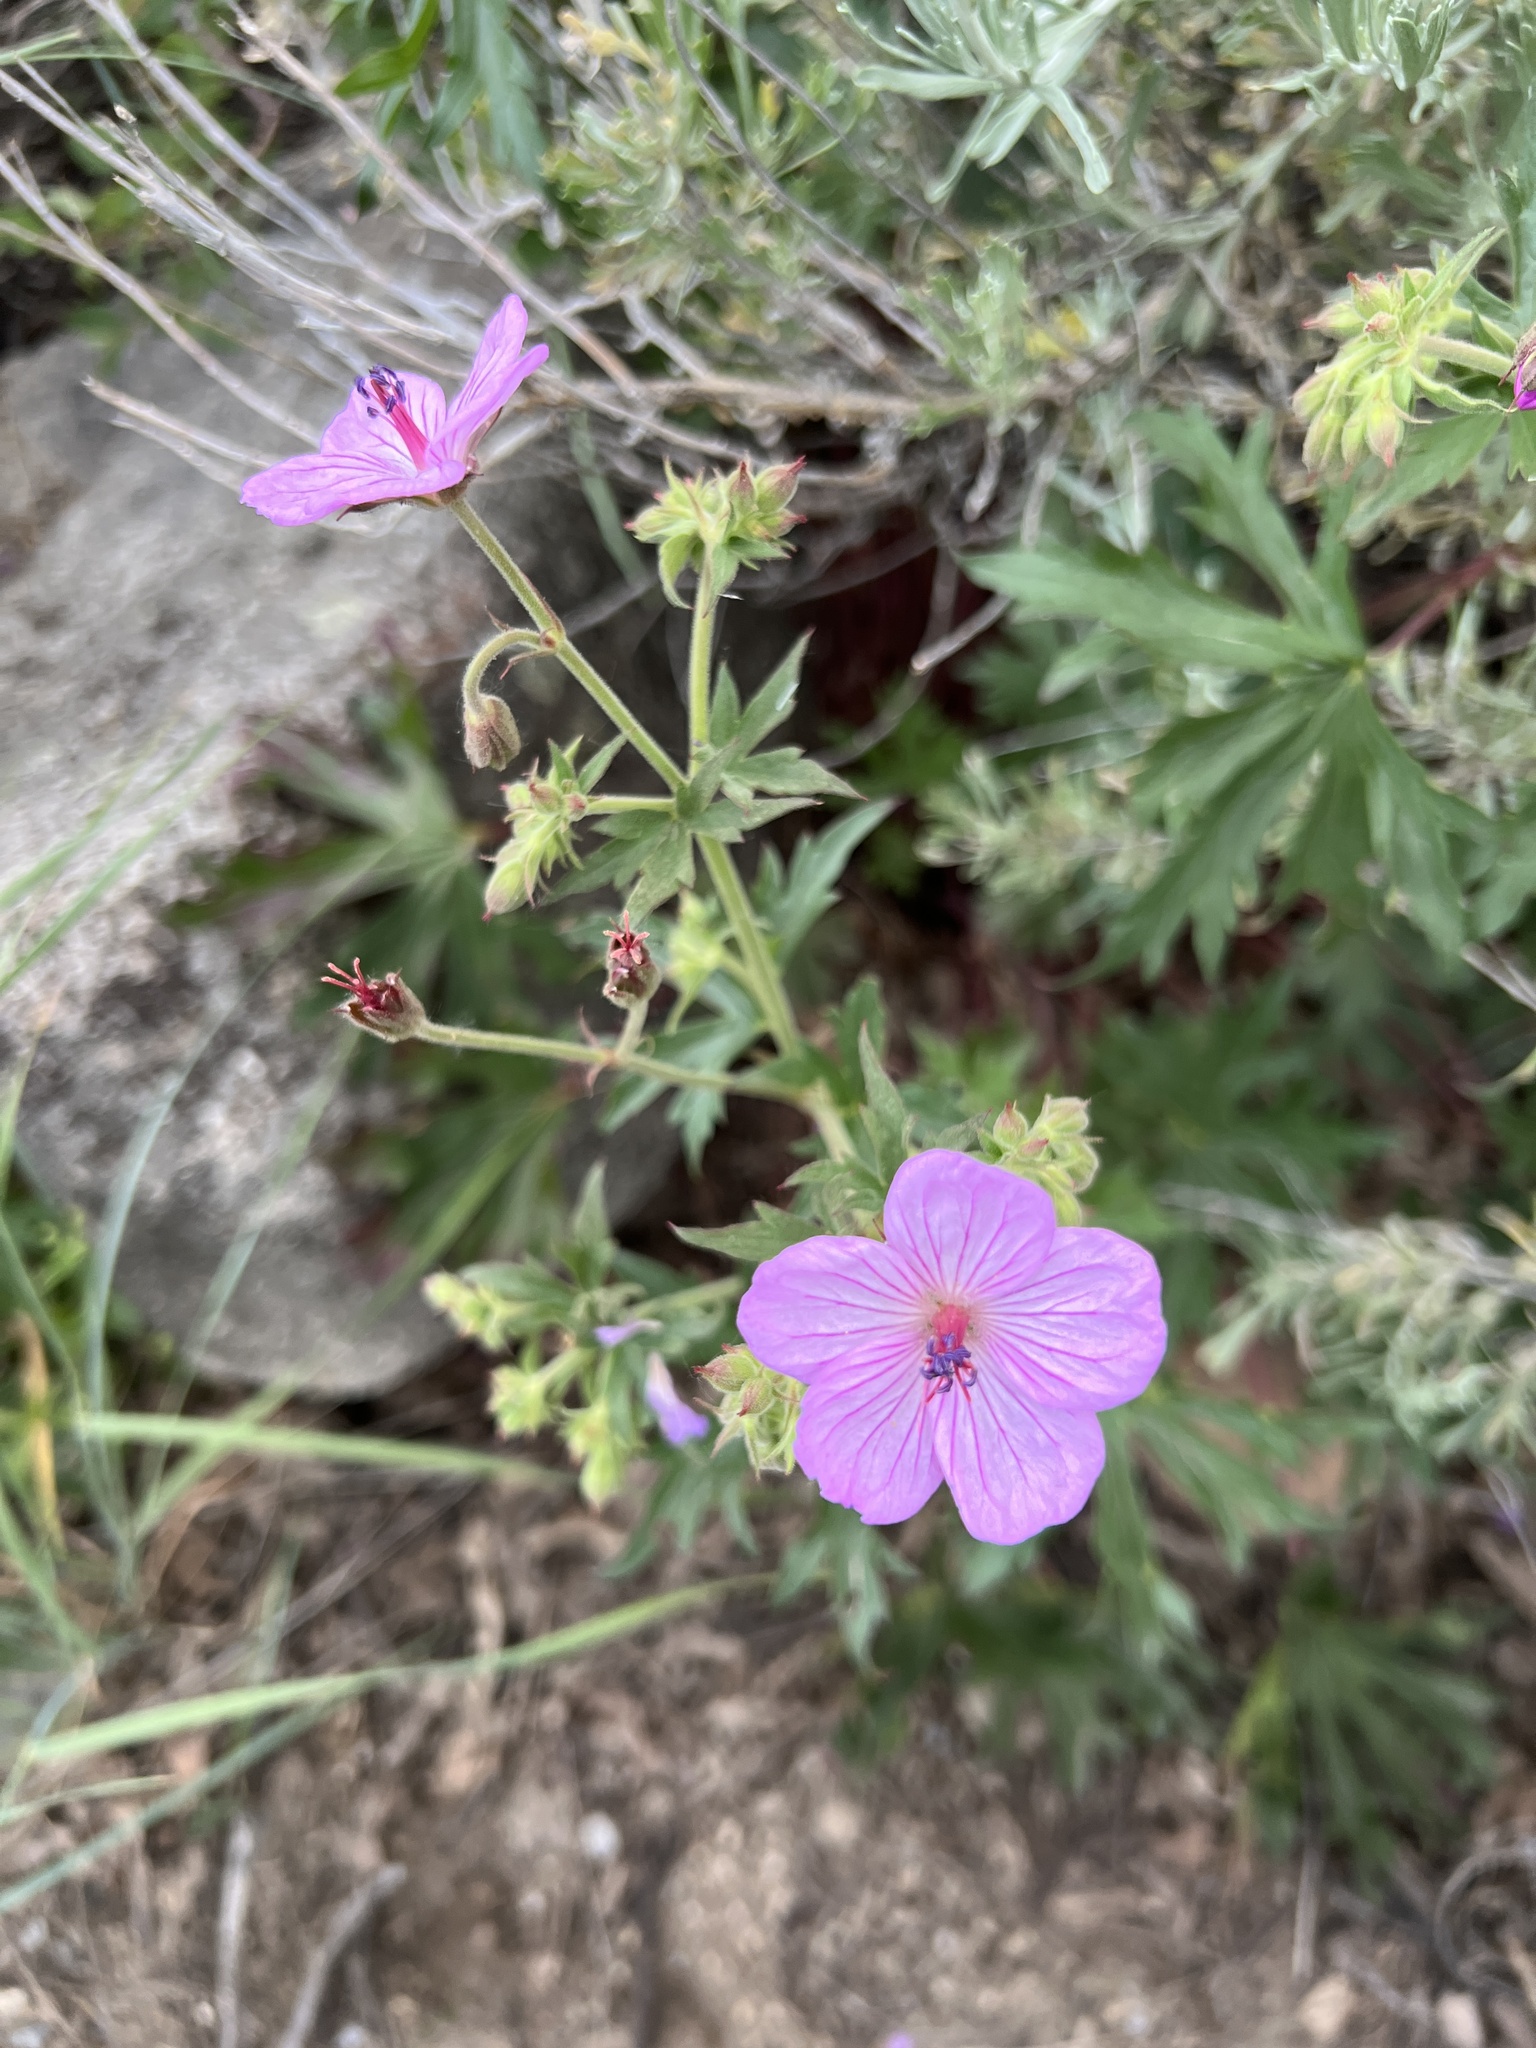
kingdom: Plantae
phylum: Tracheophyta
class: Magnoliopsida
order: Geraniales
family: Geraniaceae
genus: Geranium
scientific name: Geranium viscosissimum
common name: Purple geranium
